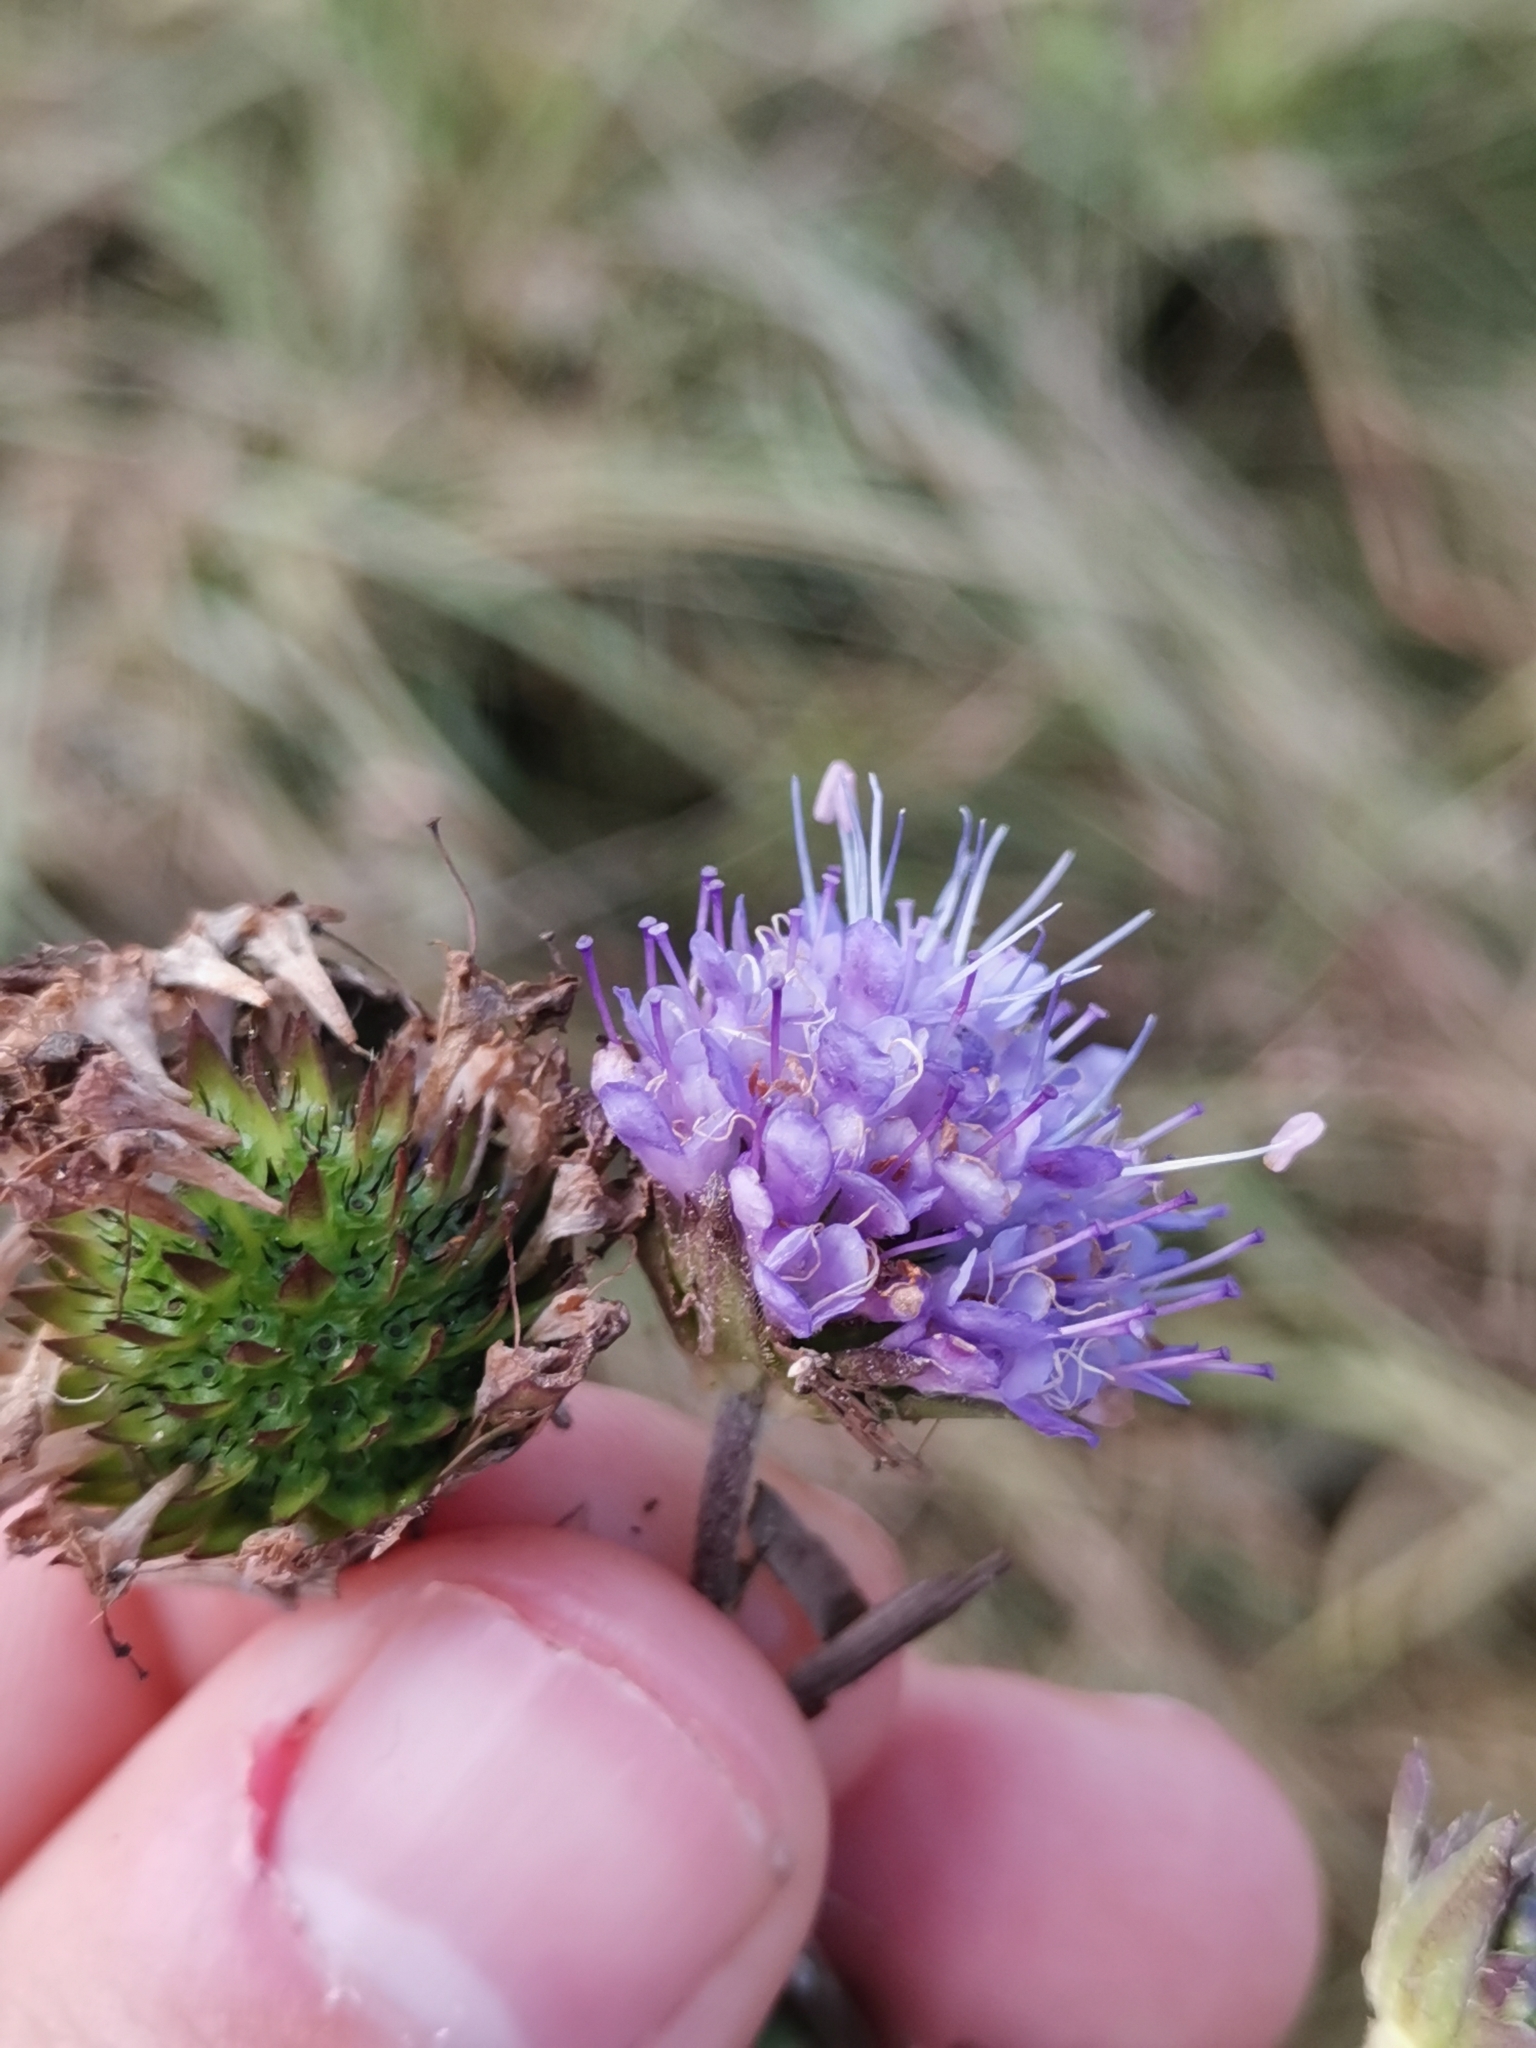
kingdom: Plantae
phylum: Tracheophyta
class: Magnoliopsida
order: Dipsacales
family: Caprifoliaceae
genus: Succisa
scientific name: Succisa pratensis
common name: Devil's-bit
